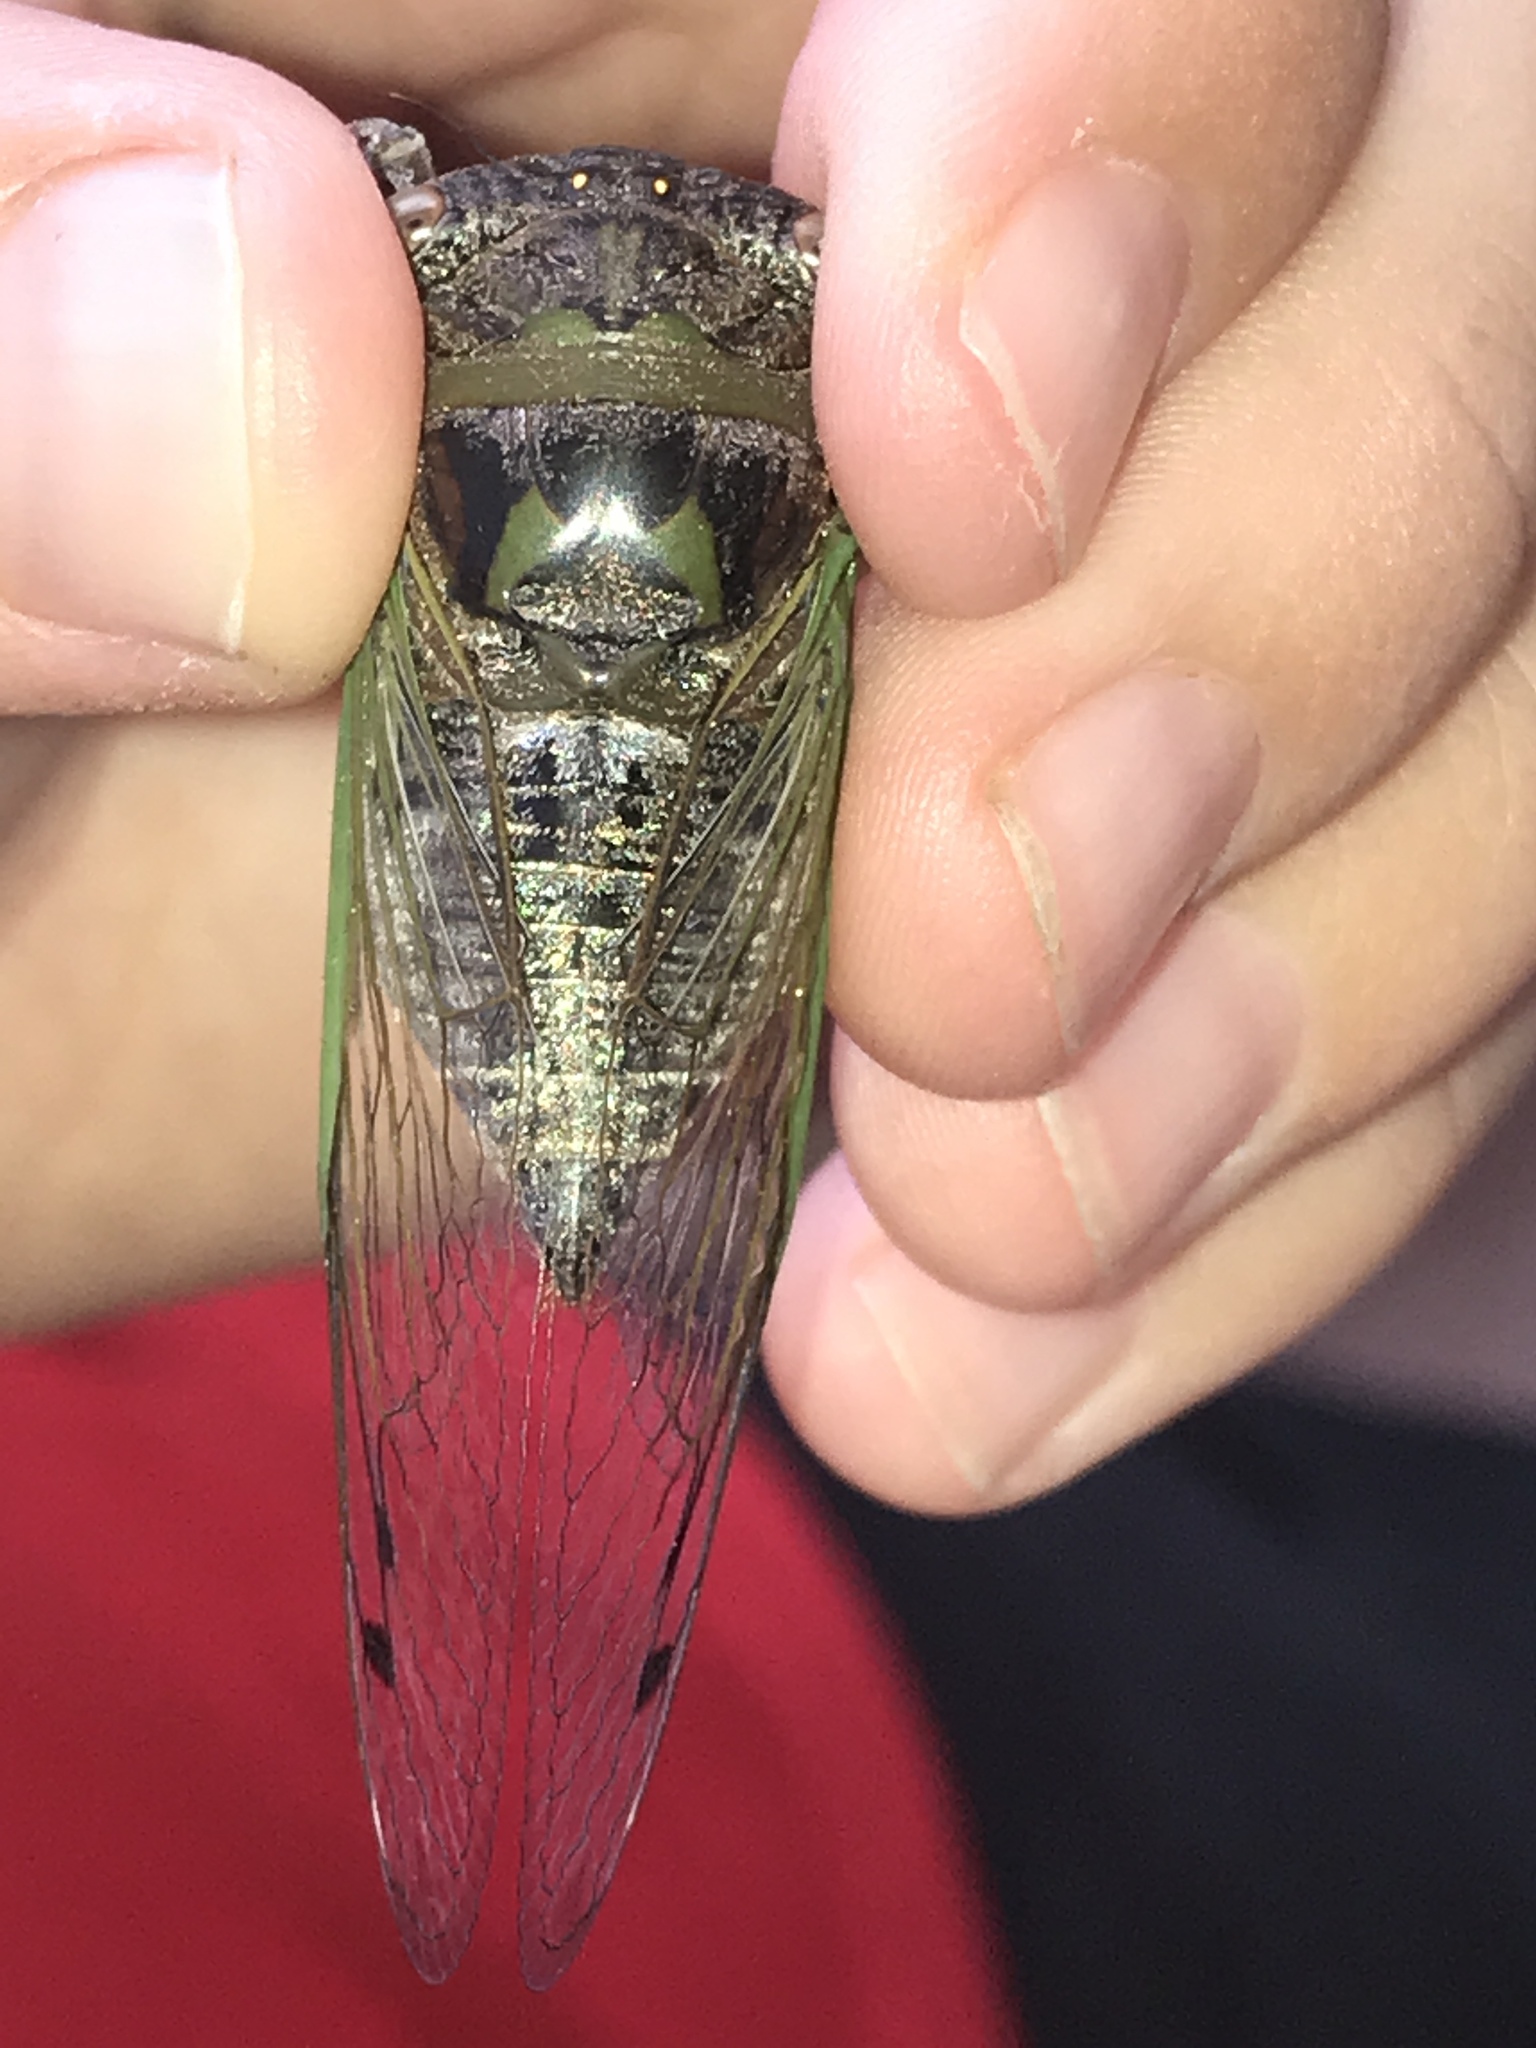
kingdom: Animalia
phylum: Arthropoda
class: Insecta
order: Hemiptera
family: Cicadidae
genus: Neotibicen
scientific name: Neotibicen aurifer
